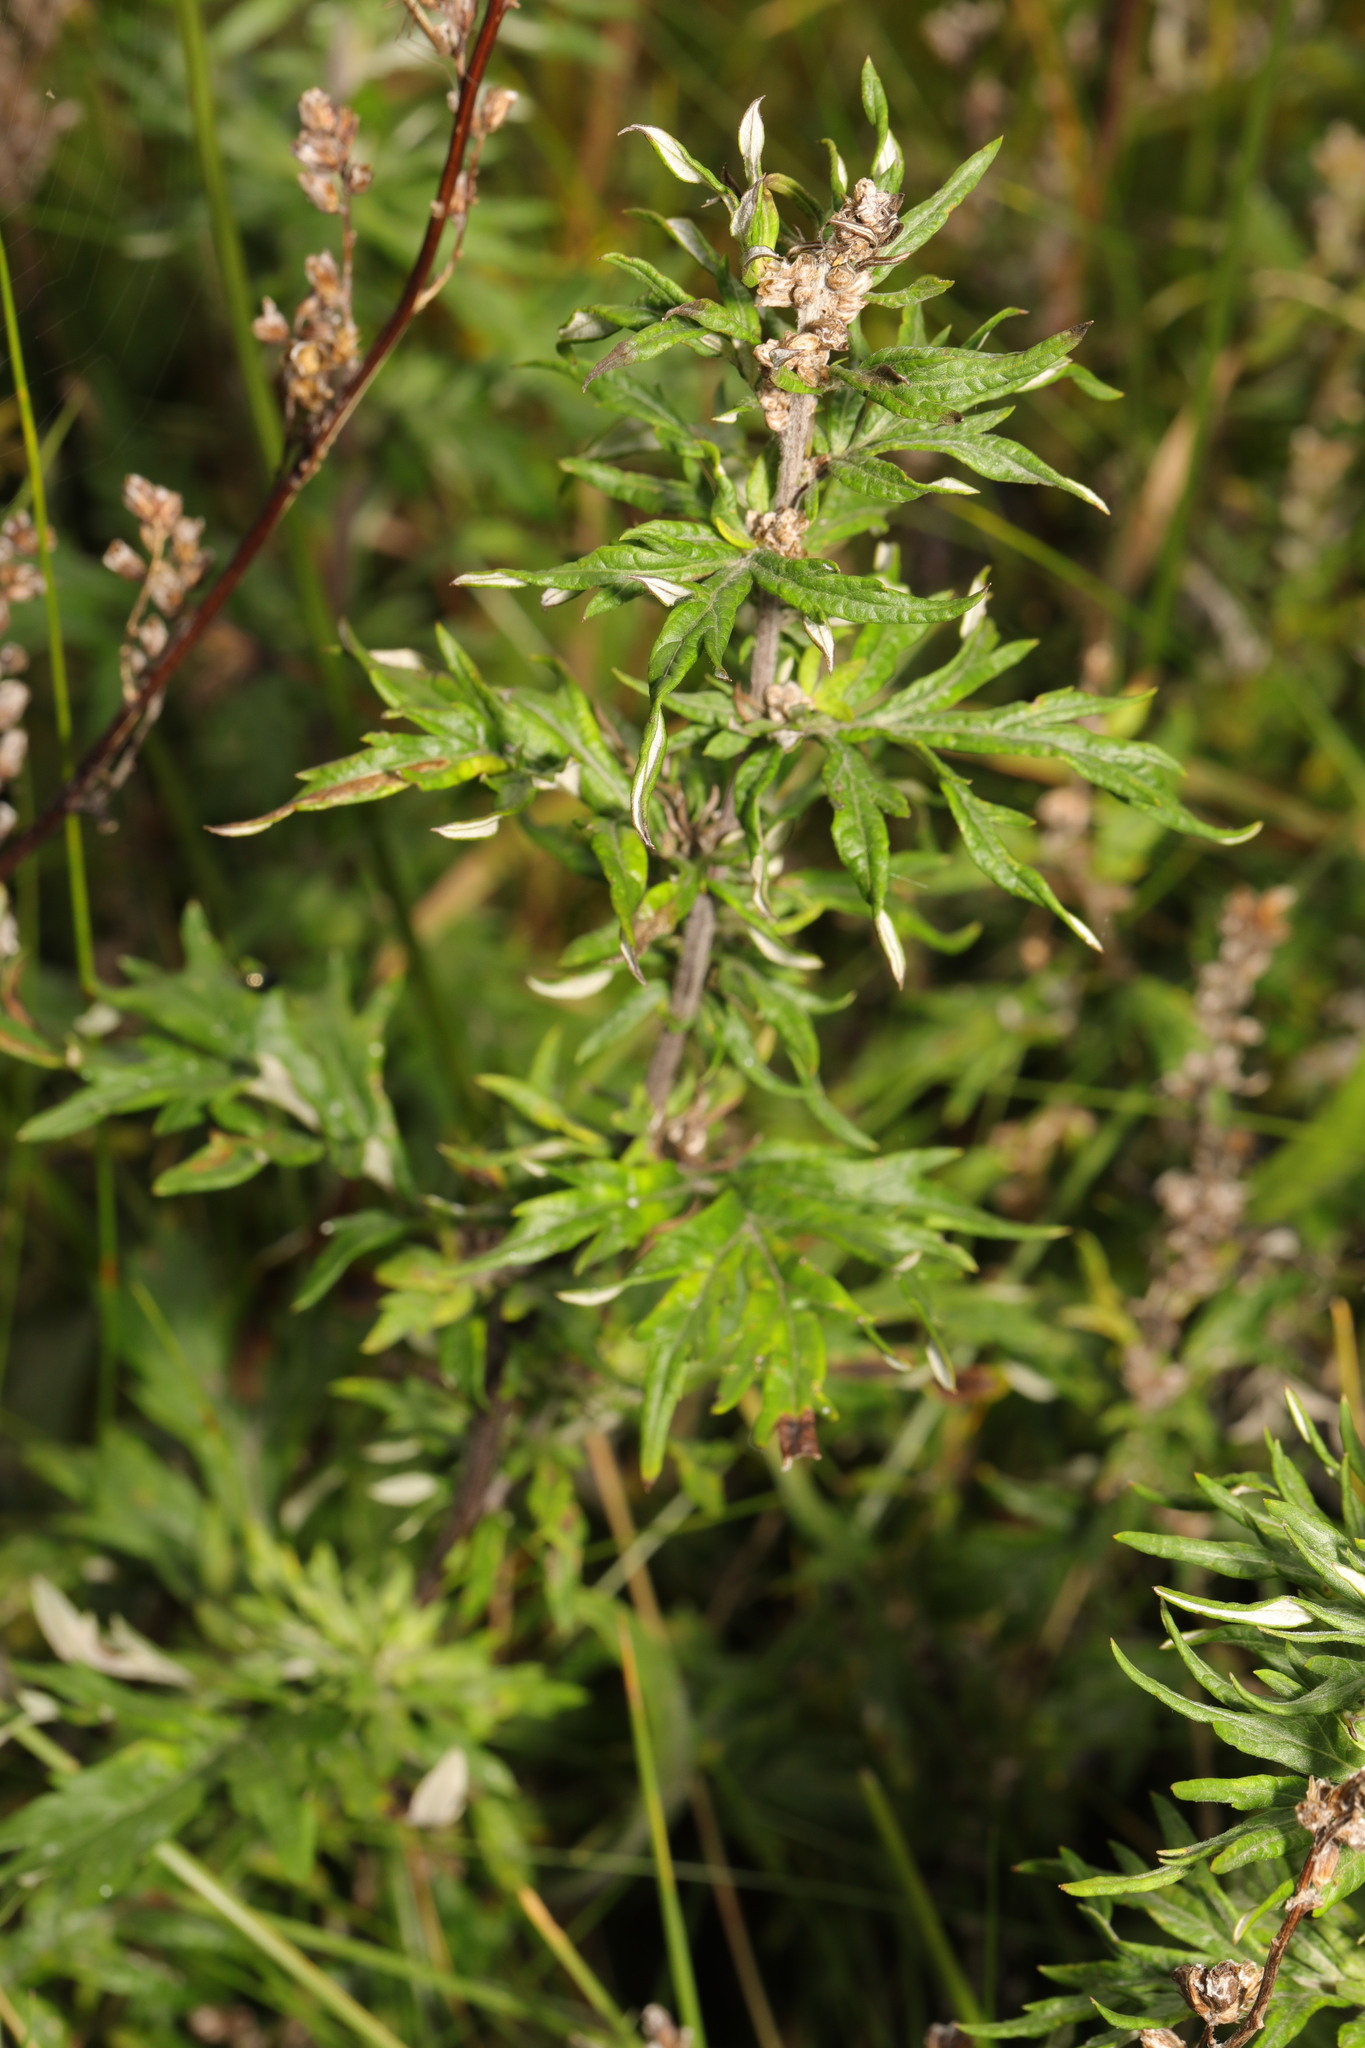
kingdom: Plantae
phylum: Tracheophyta
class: Magnoliopsida
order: Asterales
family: Asteraceae
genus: Artemisia
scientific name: Artemisia vulgaris
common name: Mugwort
